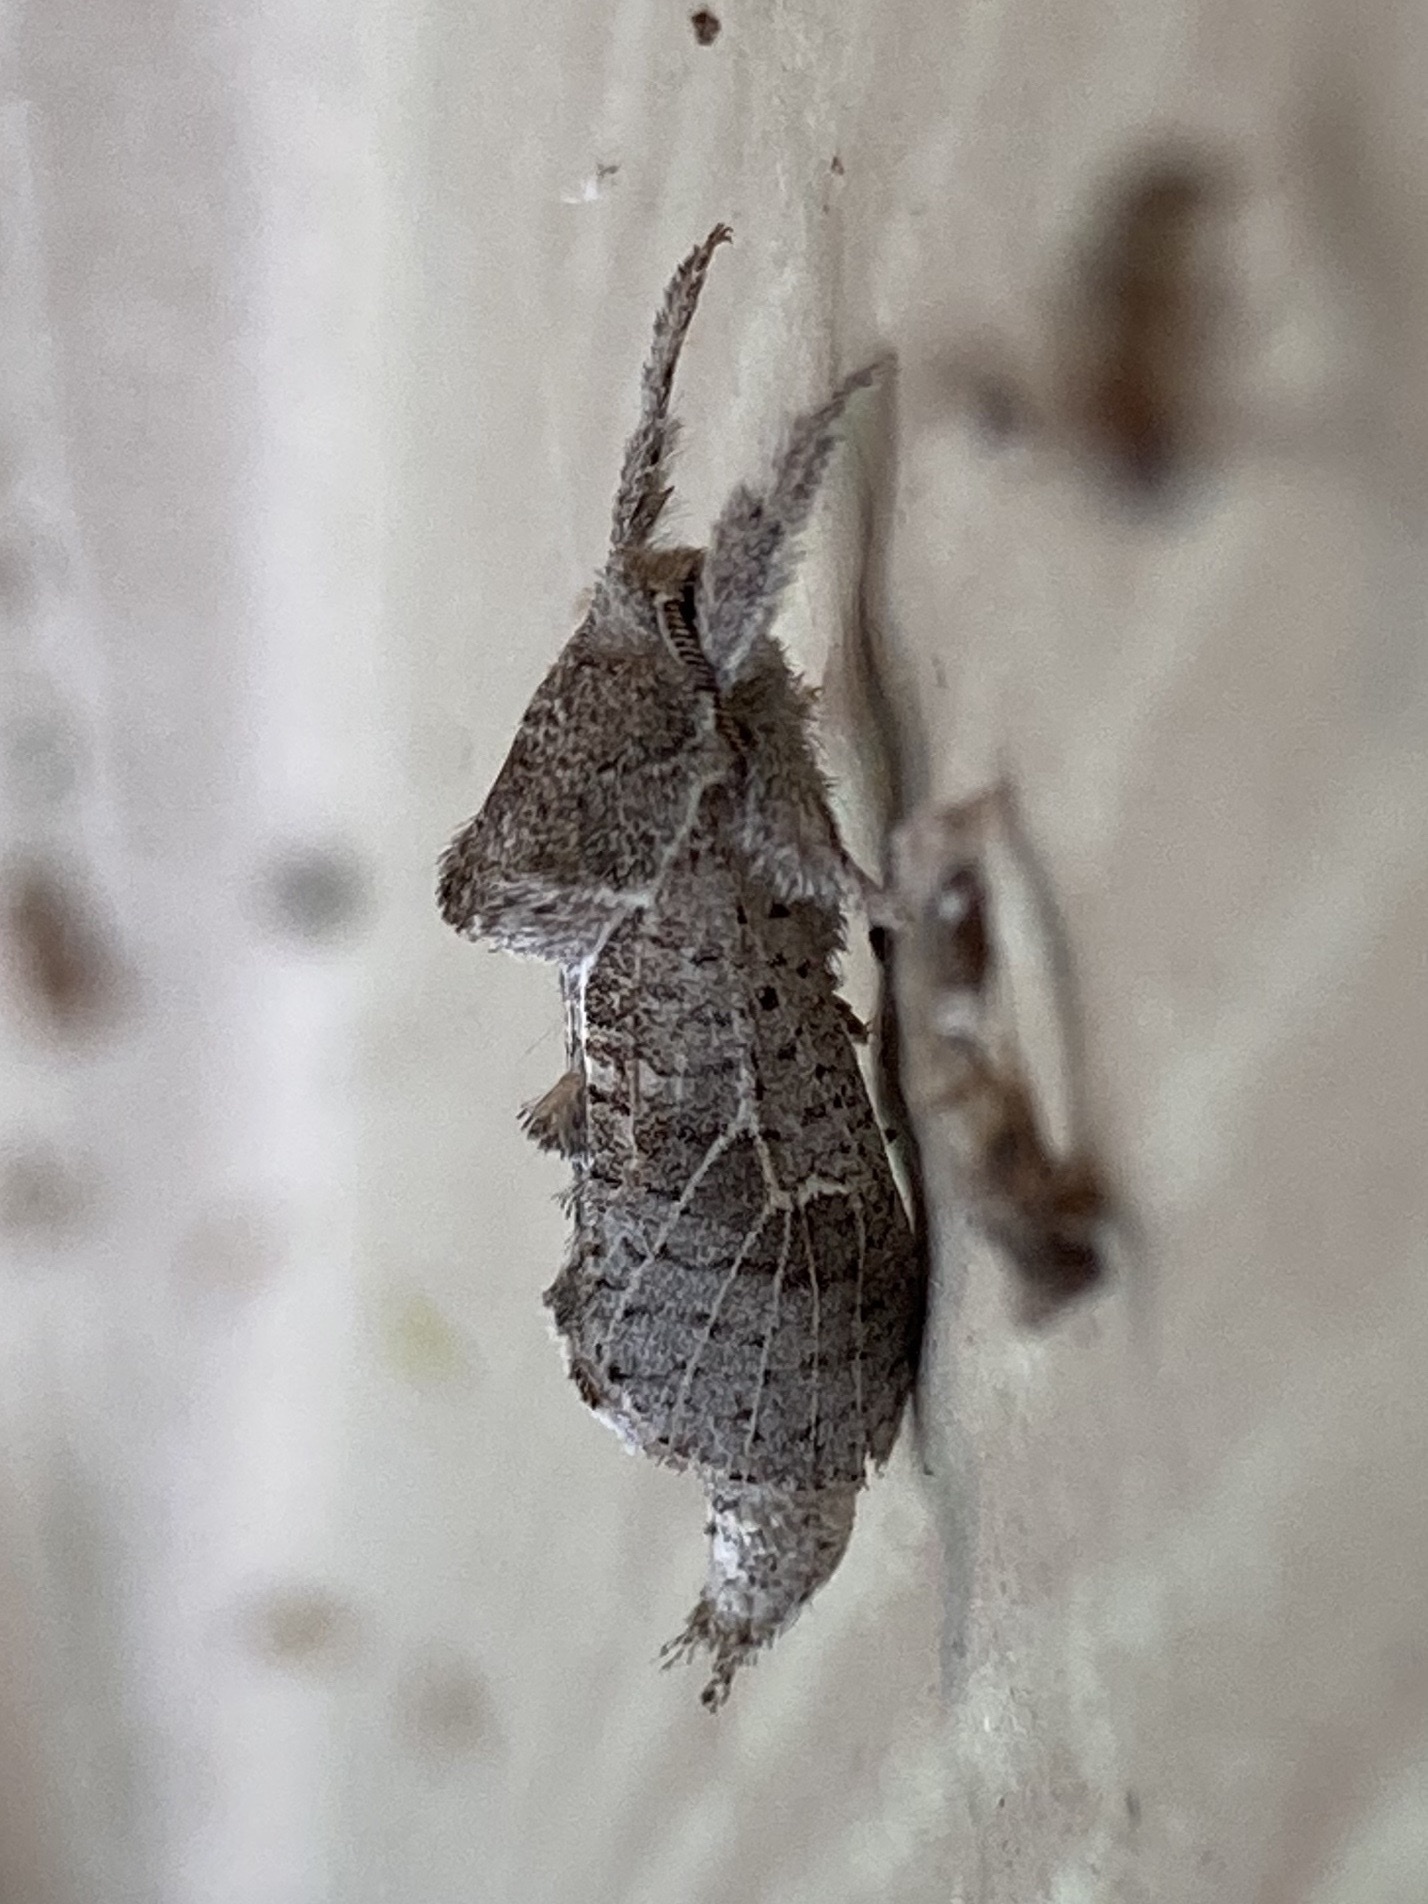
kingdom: Animalia
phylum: Arthropoda
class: Insecta
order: Lepidoptera
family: Cossidae
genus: Givira
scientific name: Givira anna
